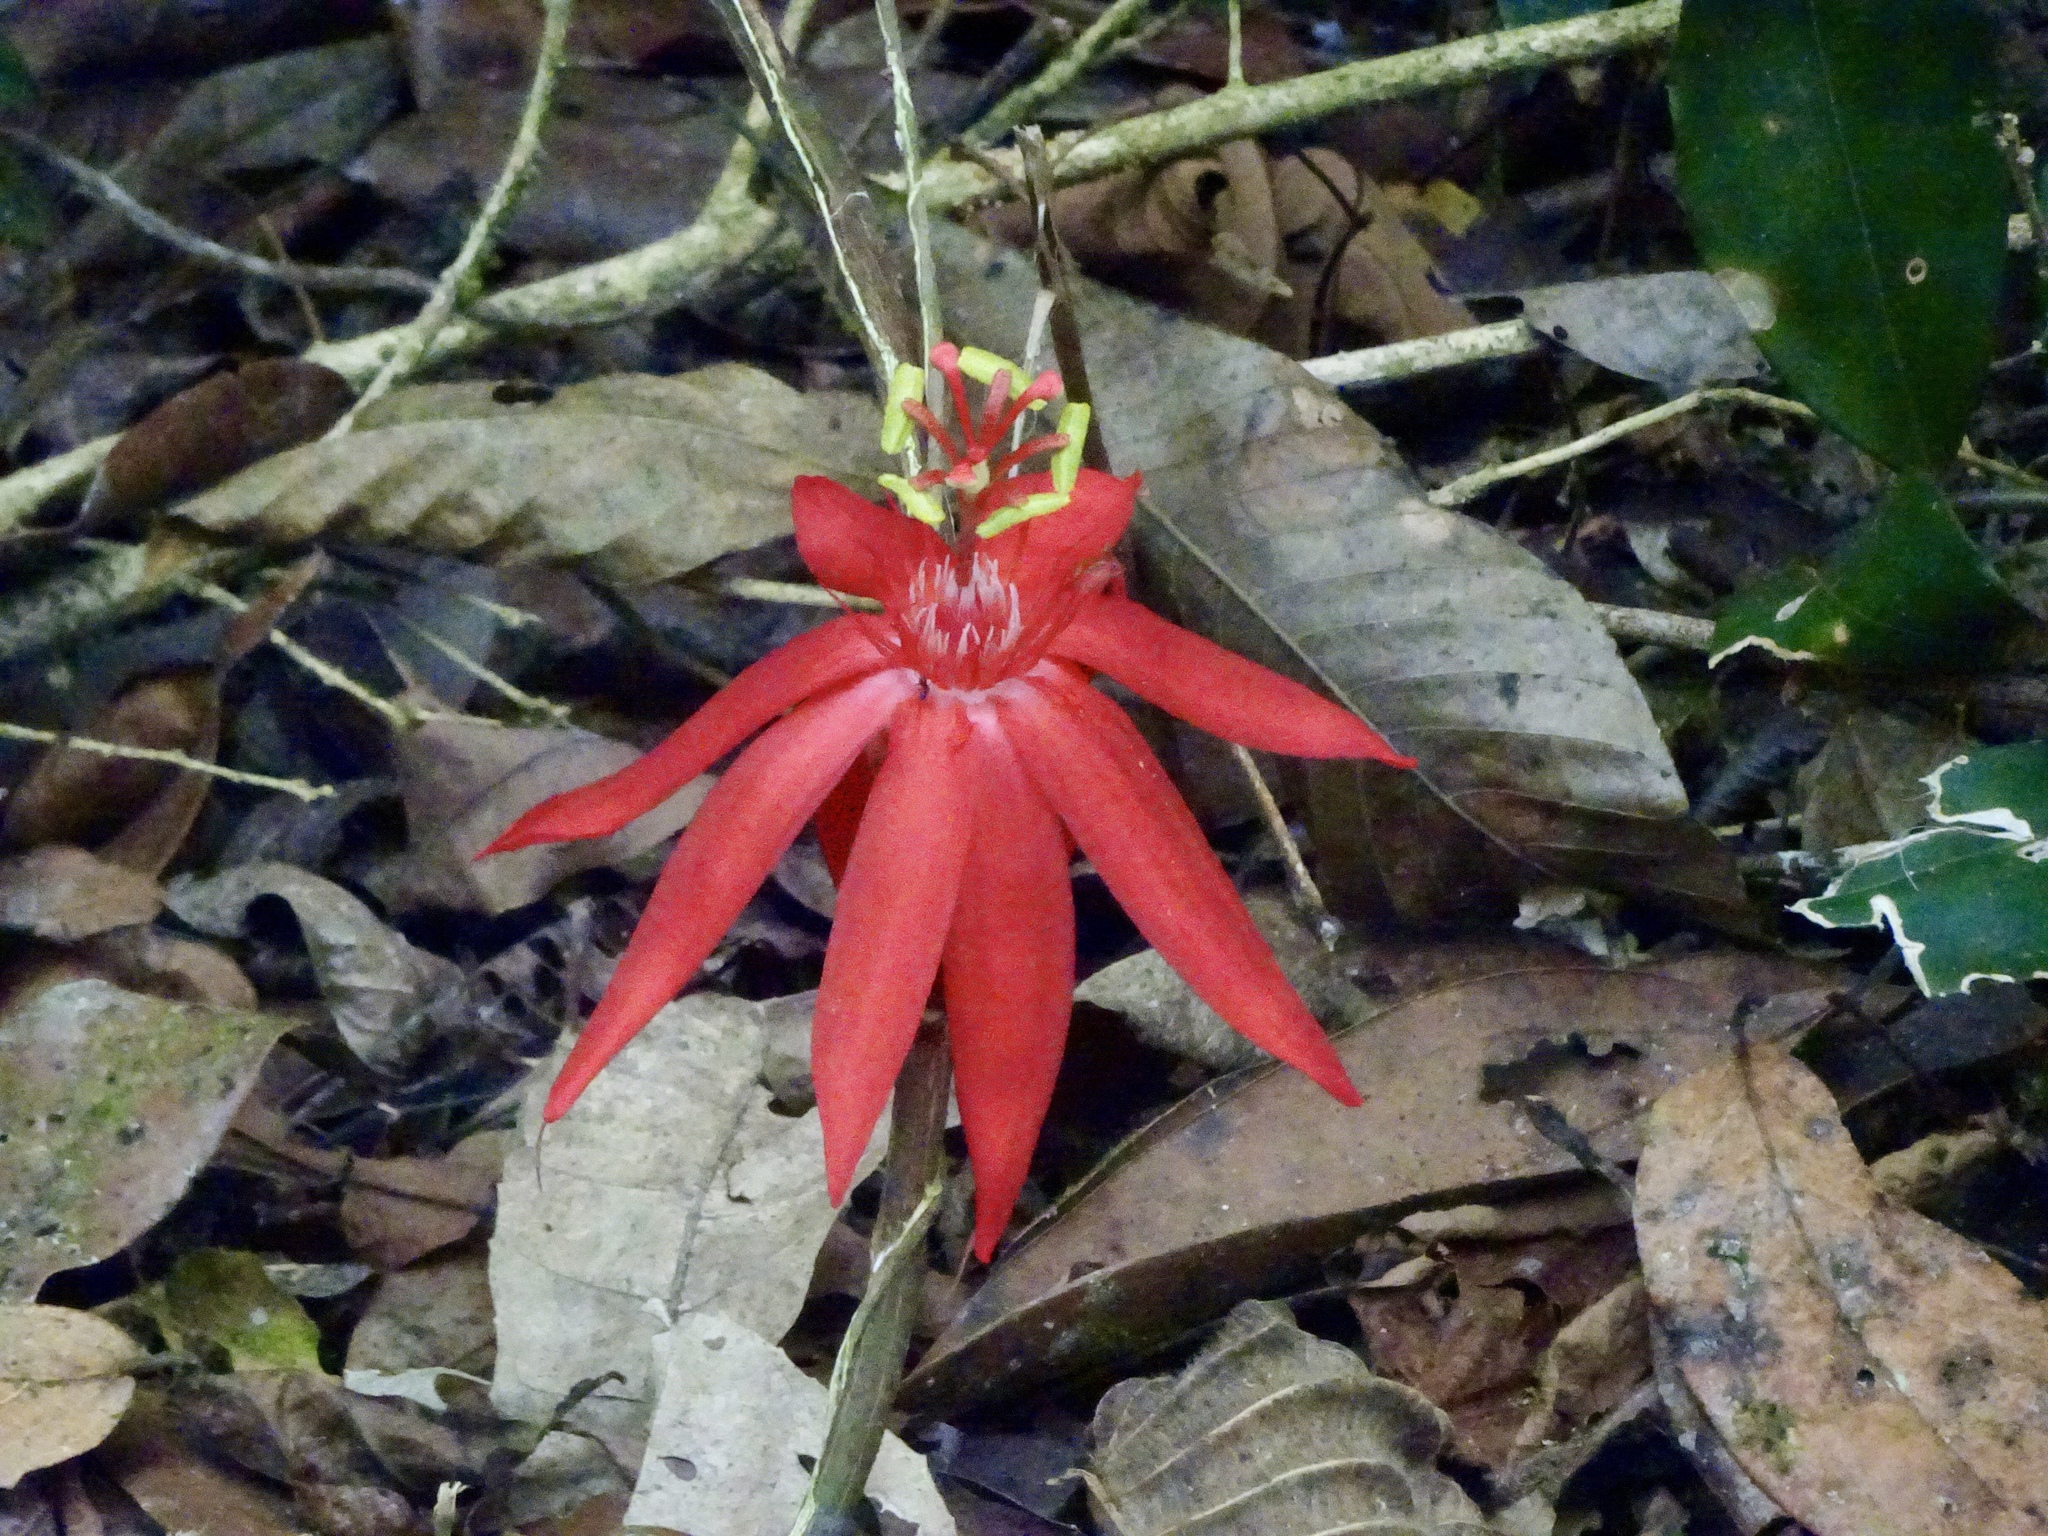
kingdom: Plantae
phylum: Tracheophyta
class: Magnoliopsida
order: Malpighiales
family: Passifloraceae
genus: Passiflora
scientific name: Passiflora vitifolia
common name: Perfumed passionflower
